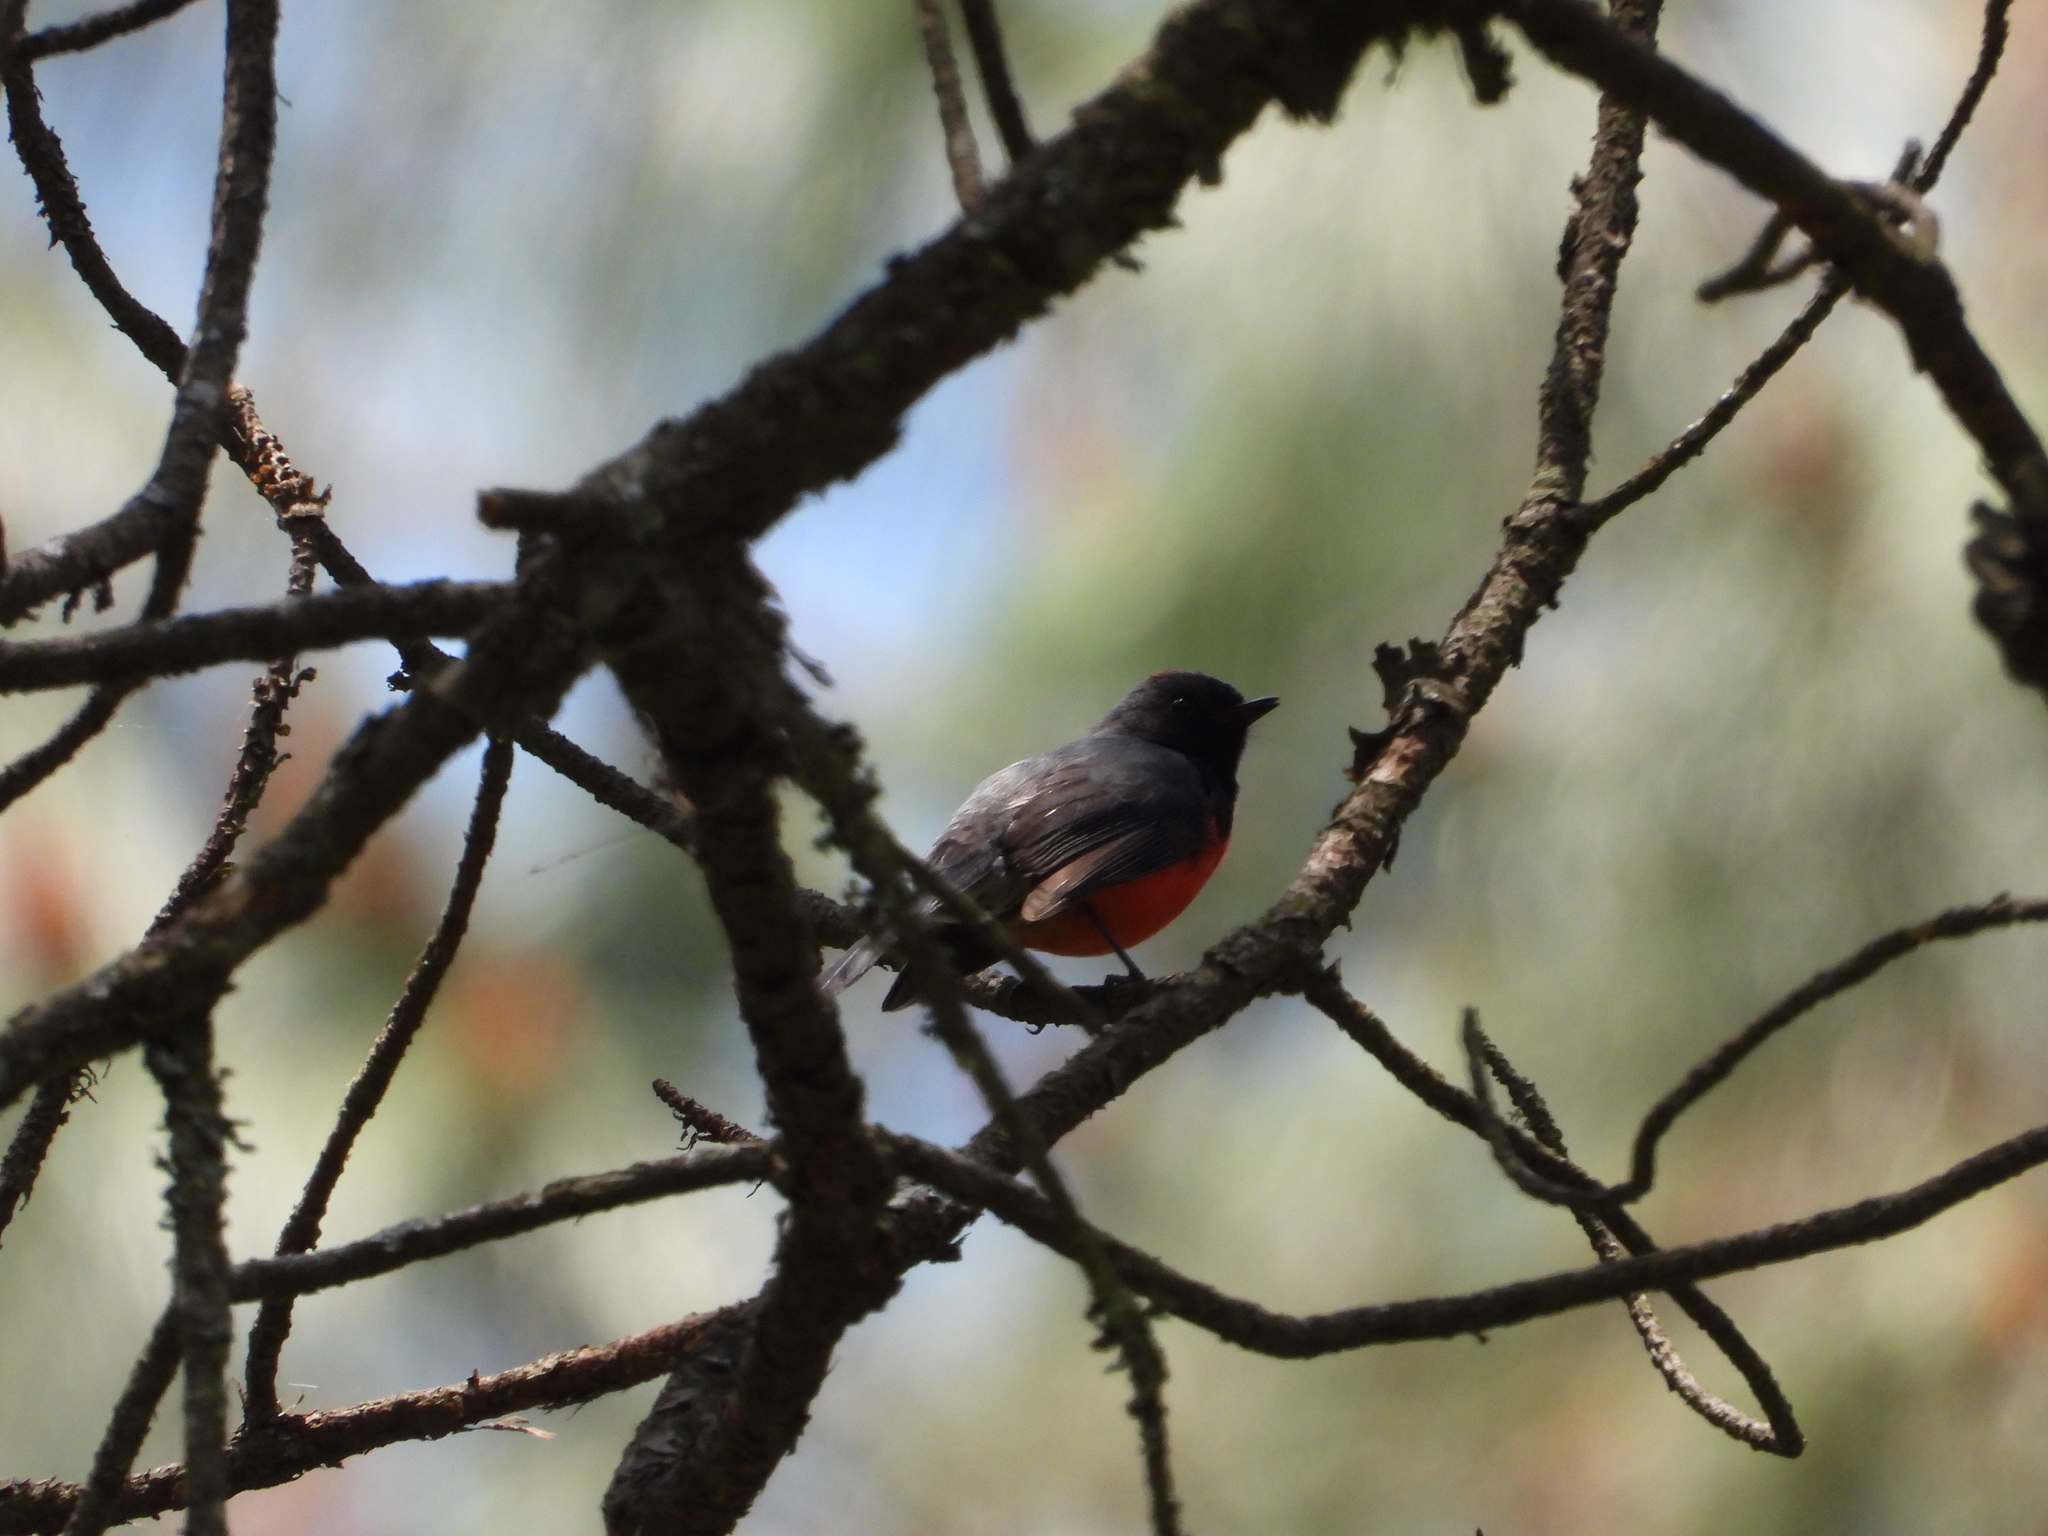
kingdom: Animalia
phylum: Chordata
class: Aves
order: Passeriformes
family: Parulidae
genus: Myioborus
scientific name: Myioborus miniatus
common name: Slate-throated redstart
